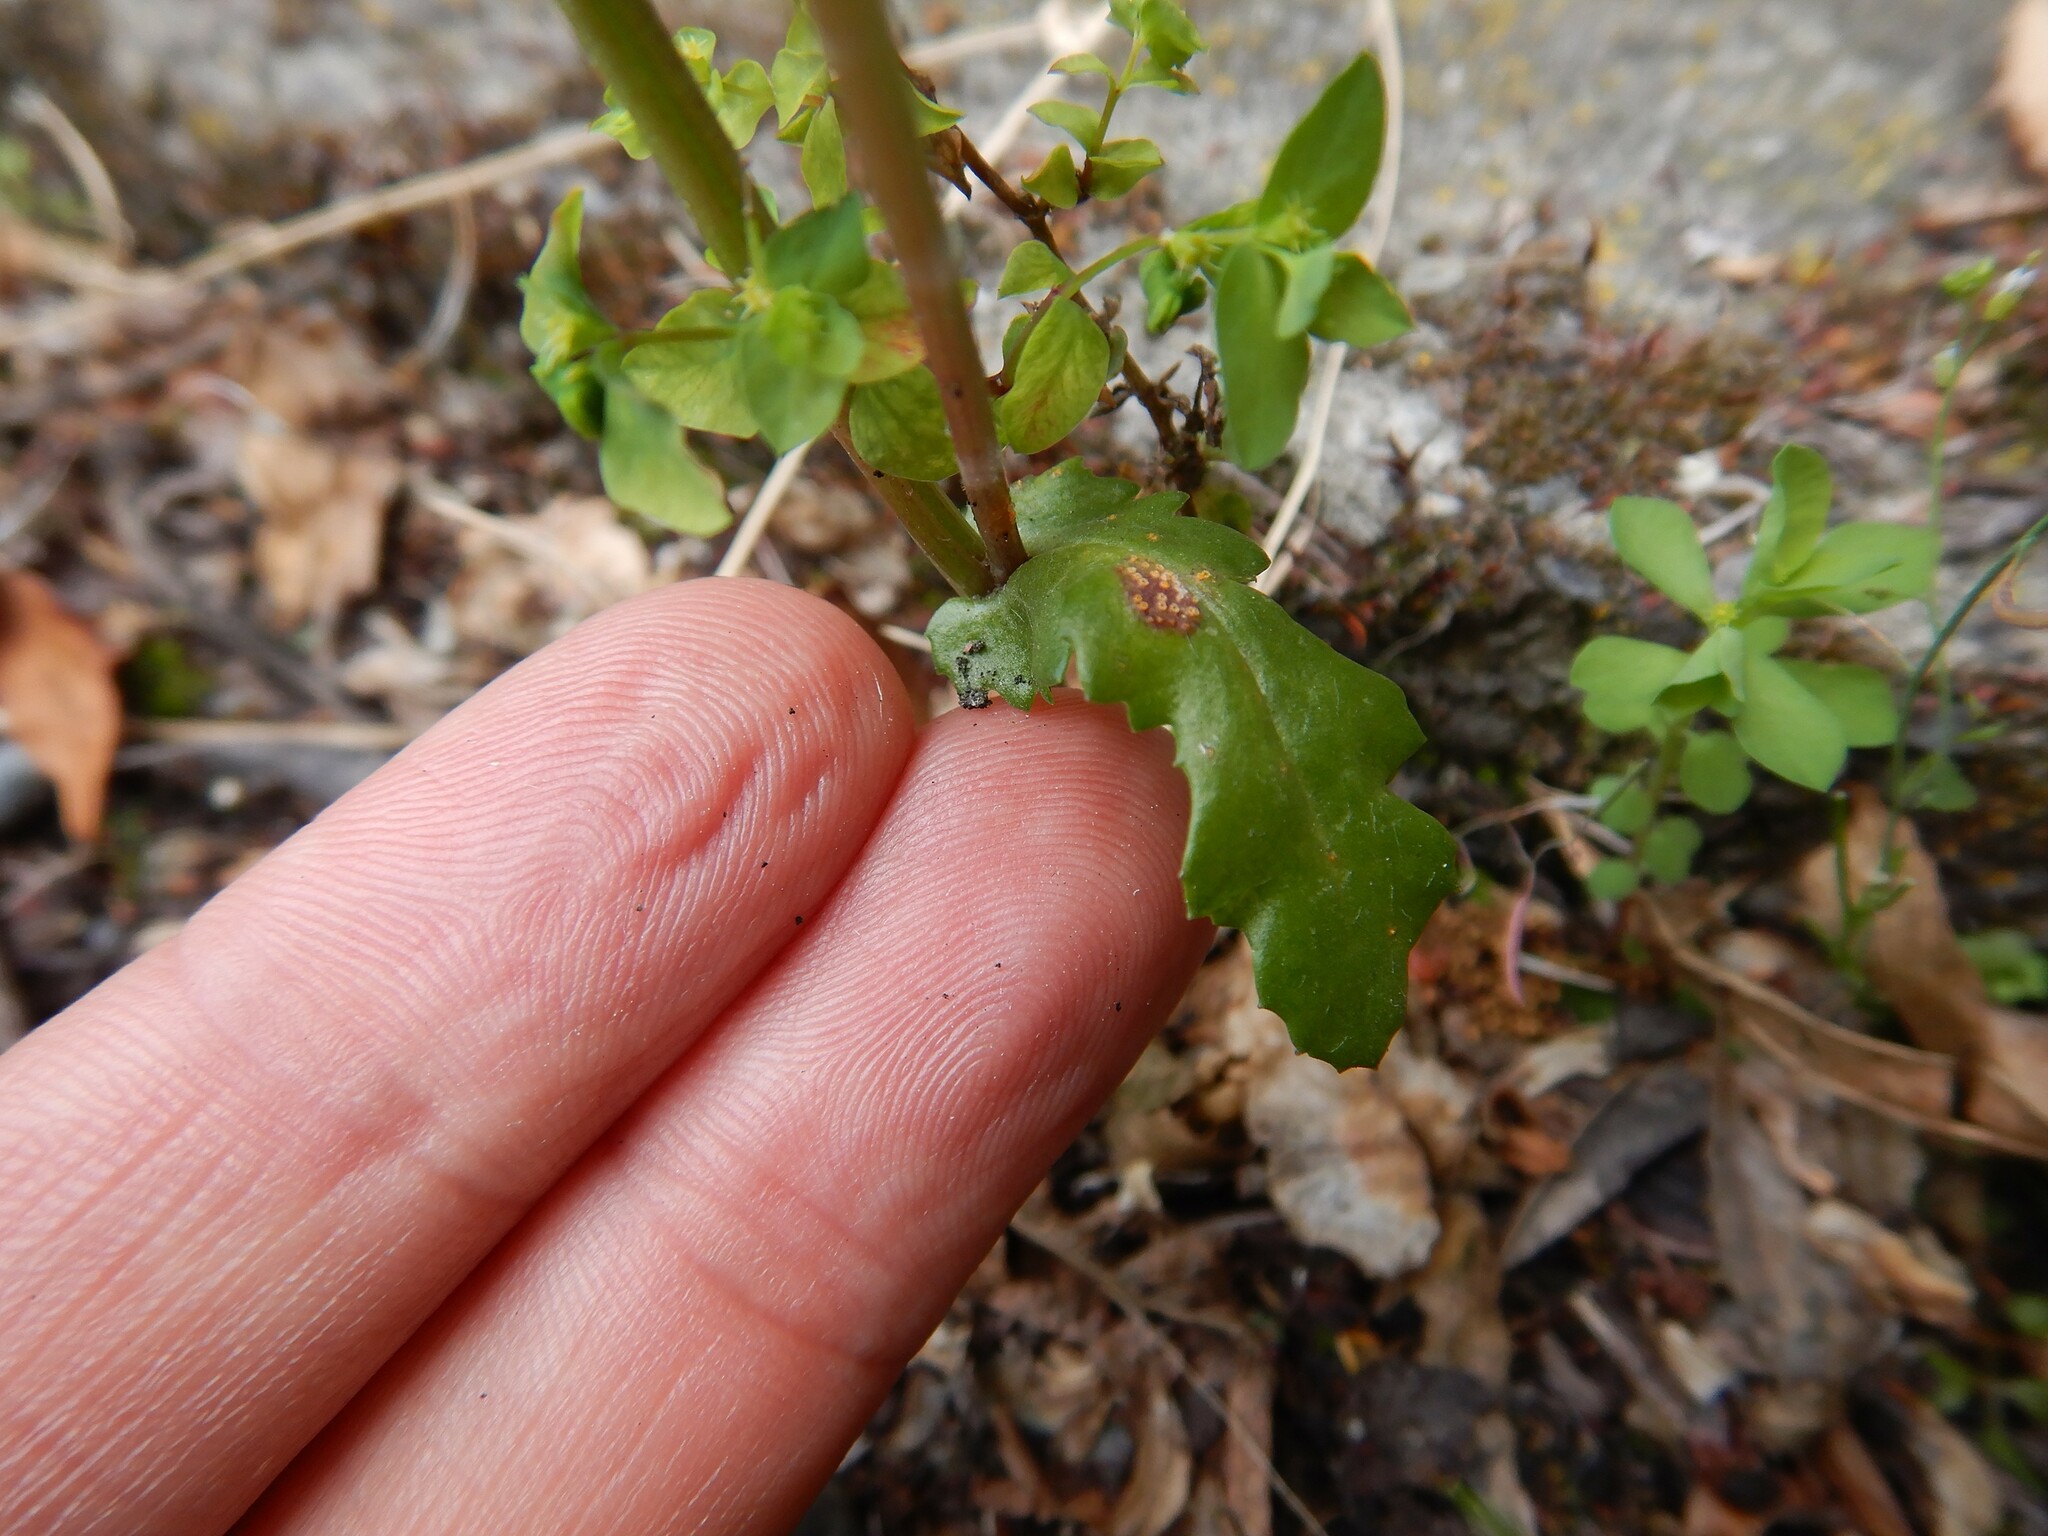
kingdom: Fungi
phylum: Basidiomycota
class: Pucciniomycetes
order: Pucciniales
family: Pucciniaceae
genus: Puccinia
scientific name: Puccinia lagenophorae
